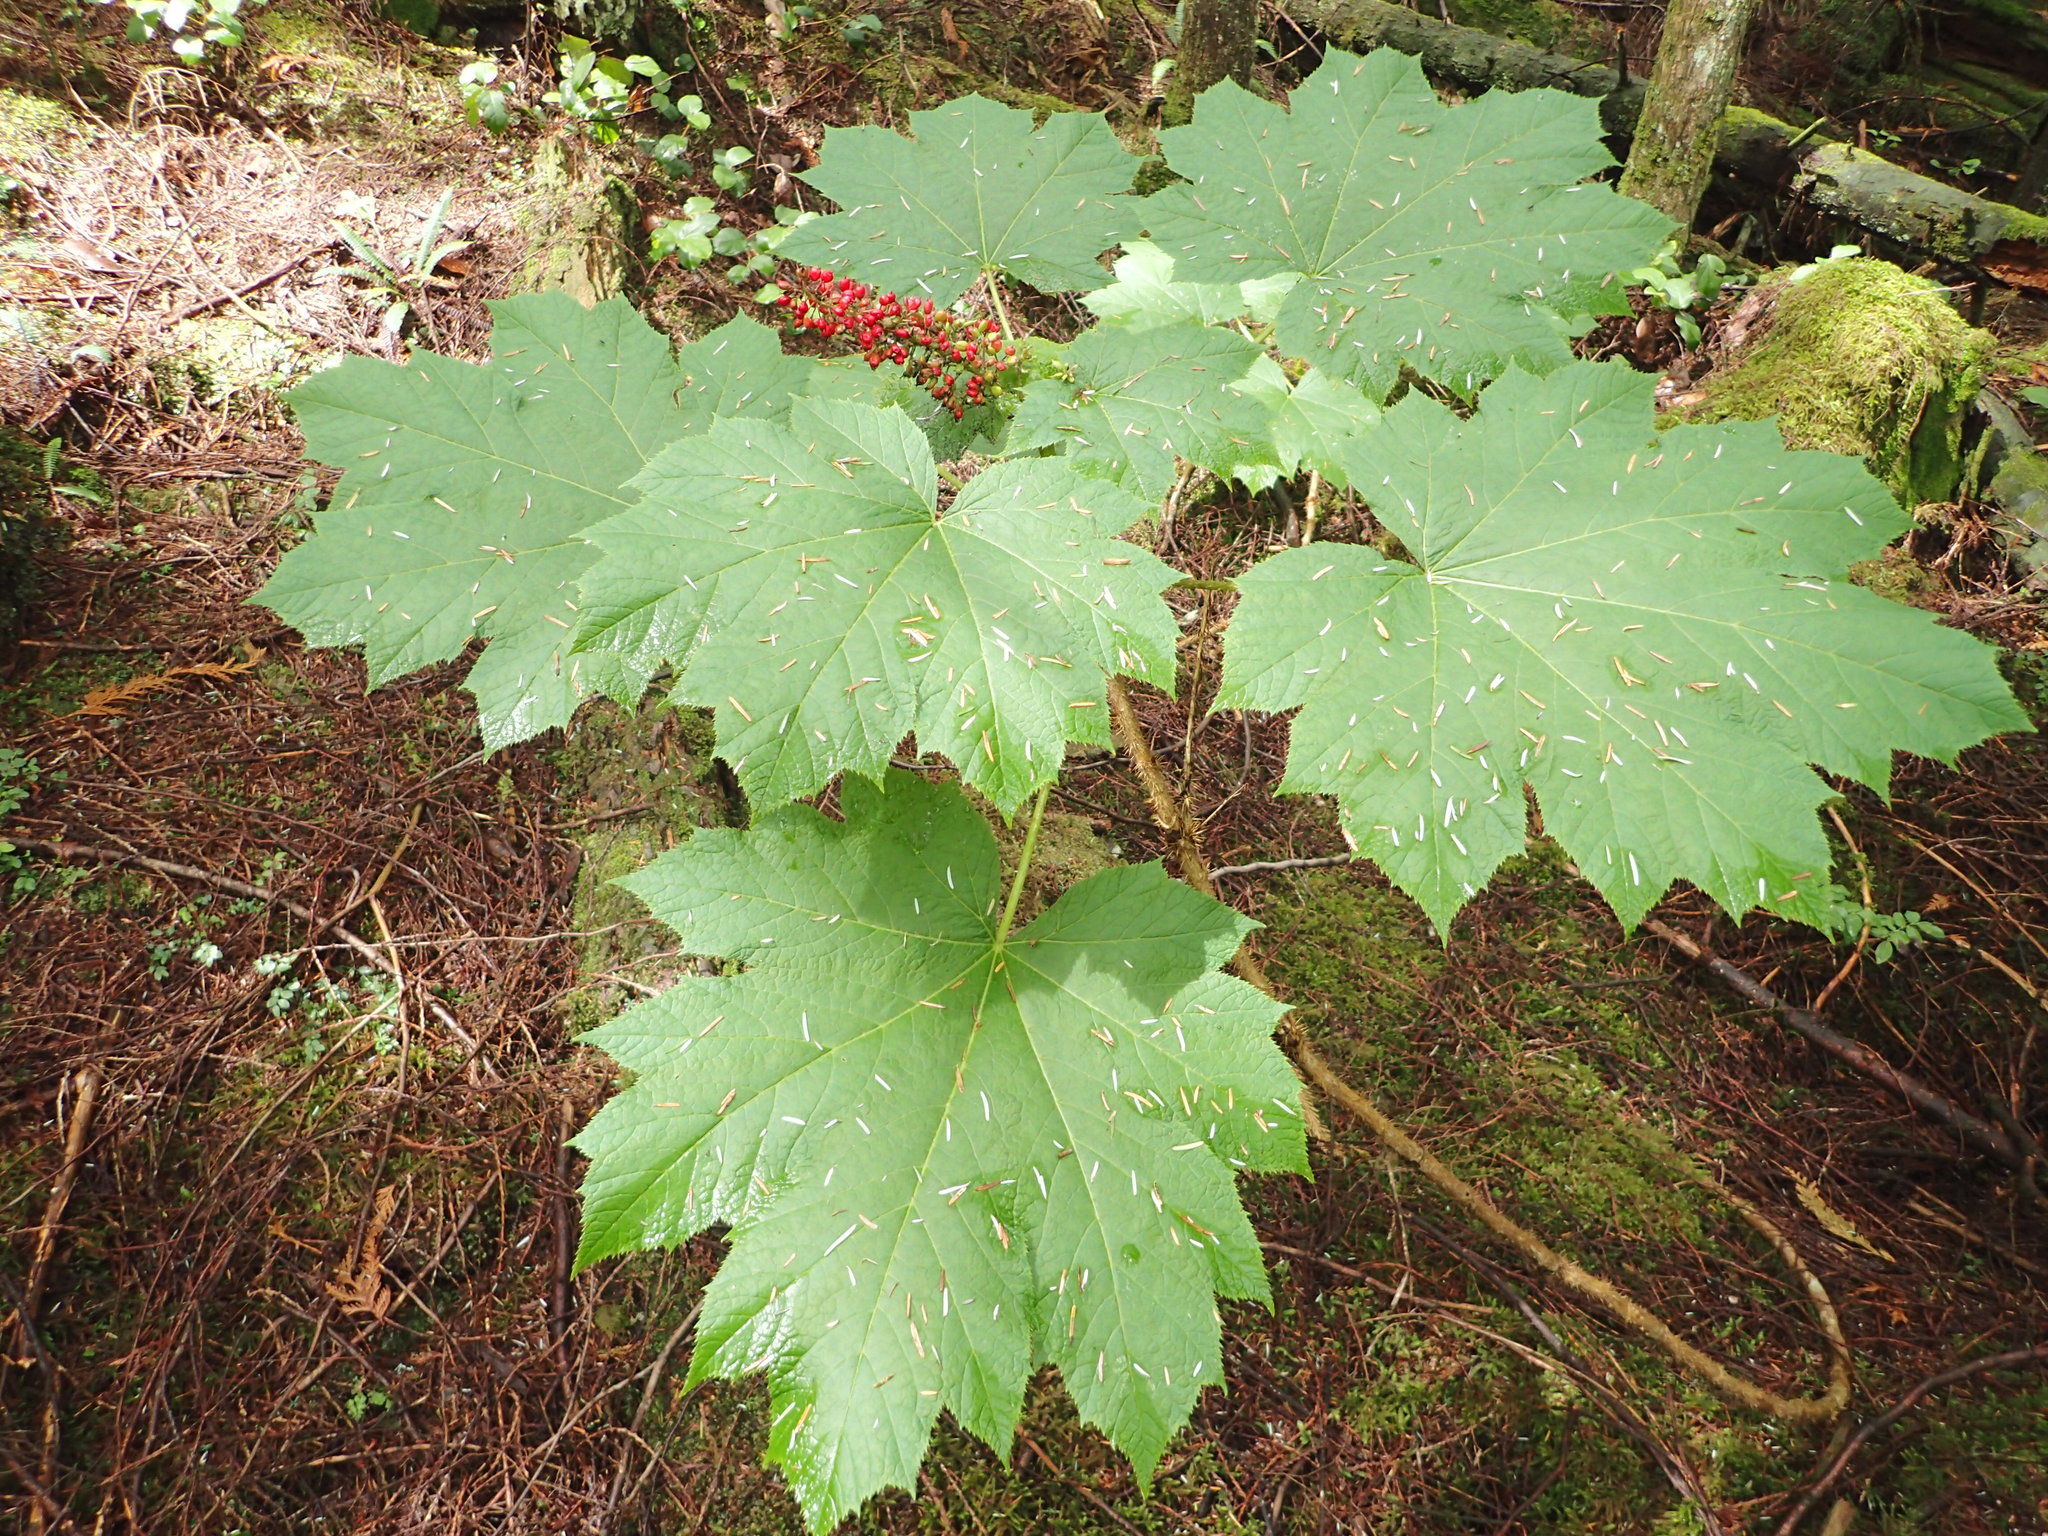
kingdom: Plantae
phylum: Tracheophyta
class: Magnoliopsida
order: Apiales
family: Araliaceae
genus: Oplopanax
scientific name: Oplopanax horridus
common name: Devil's walking-stick
